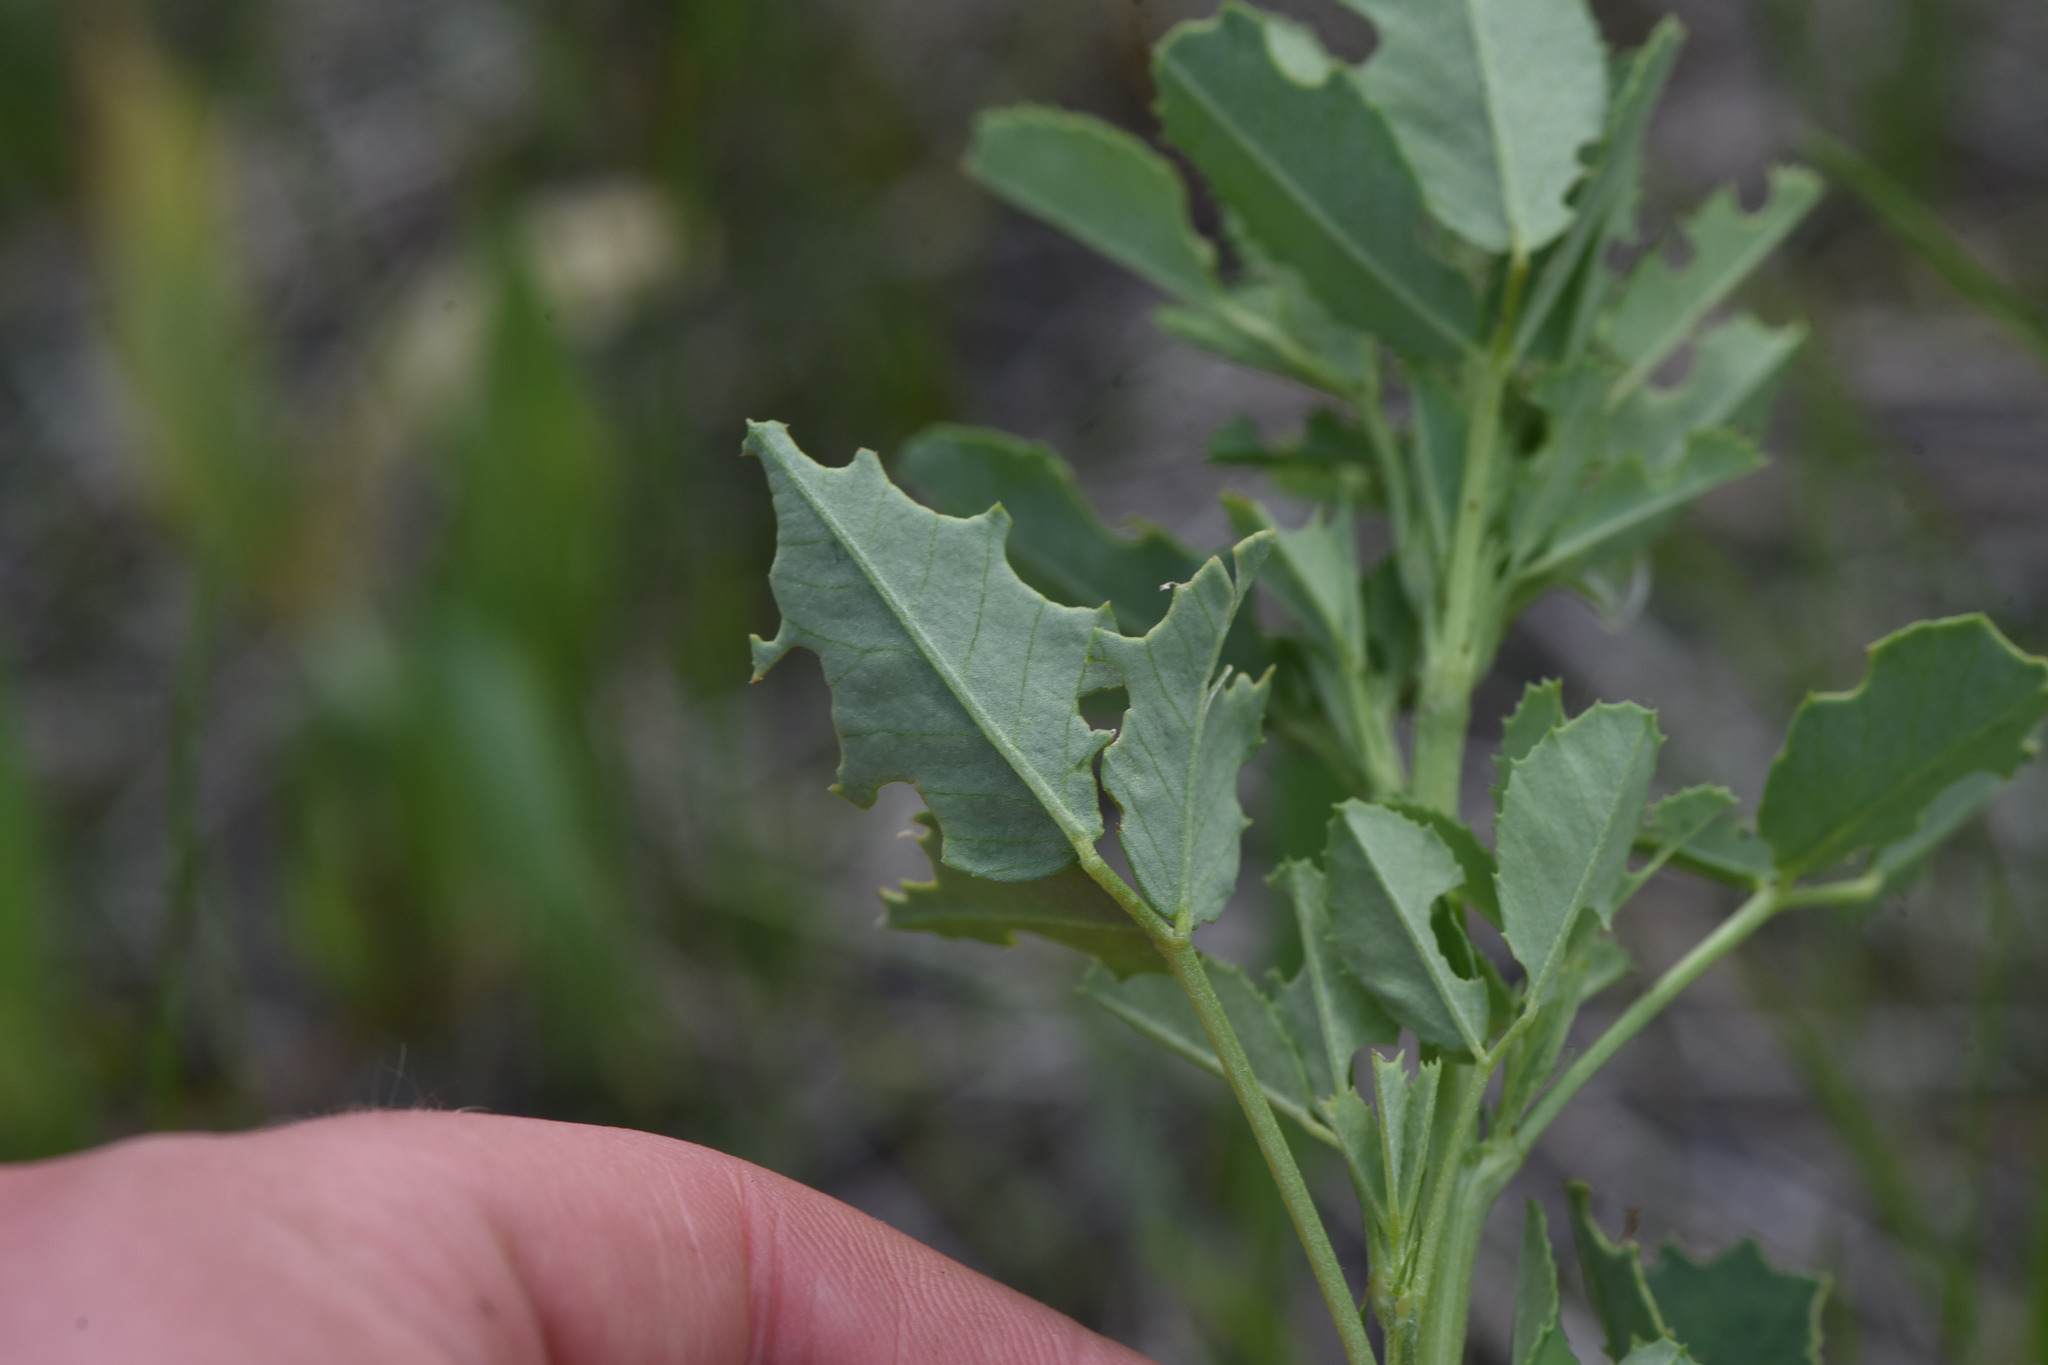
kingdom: Plantae
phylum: Tracheophyta
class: Magnoliopsida
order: Fabales
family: Fabaceae
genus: Melilotus
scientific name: Melilotus albus
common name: White melilot
